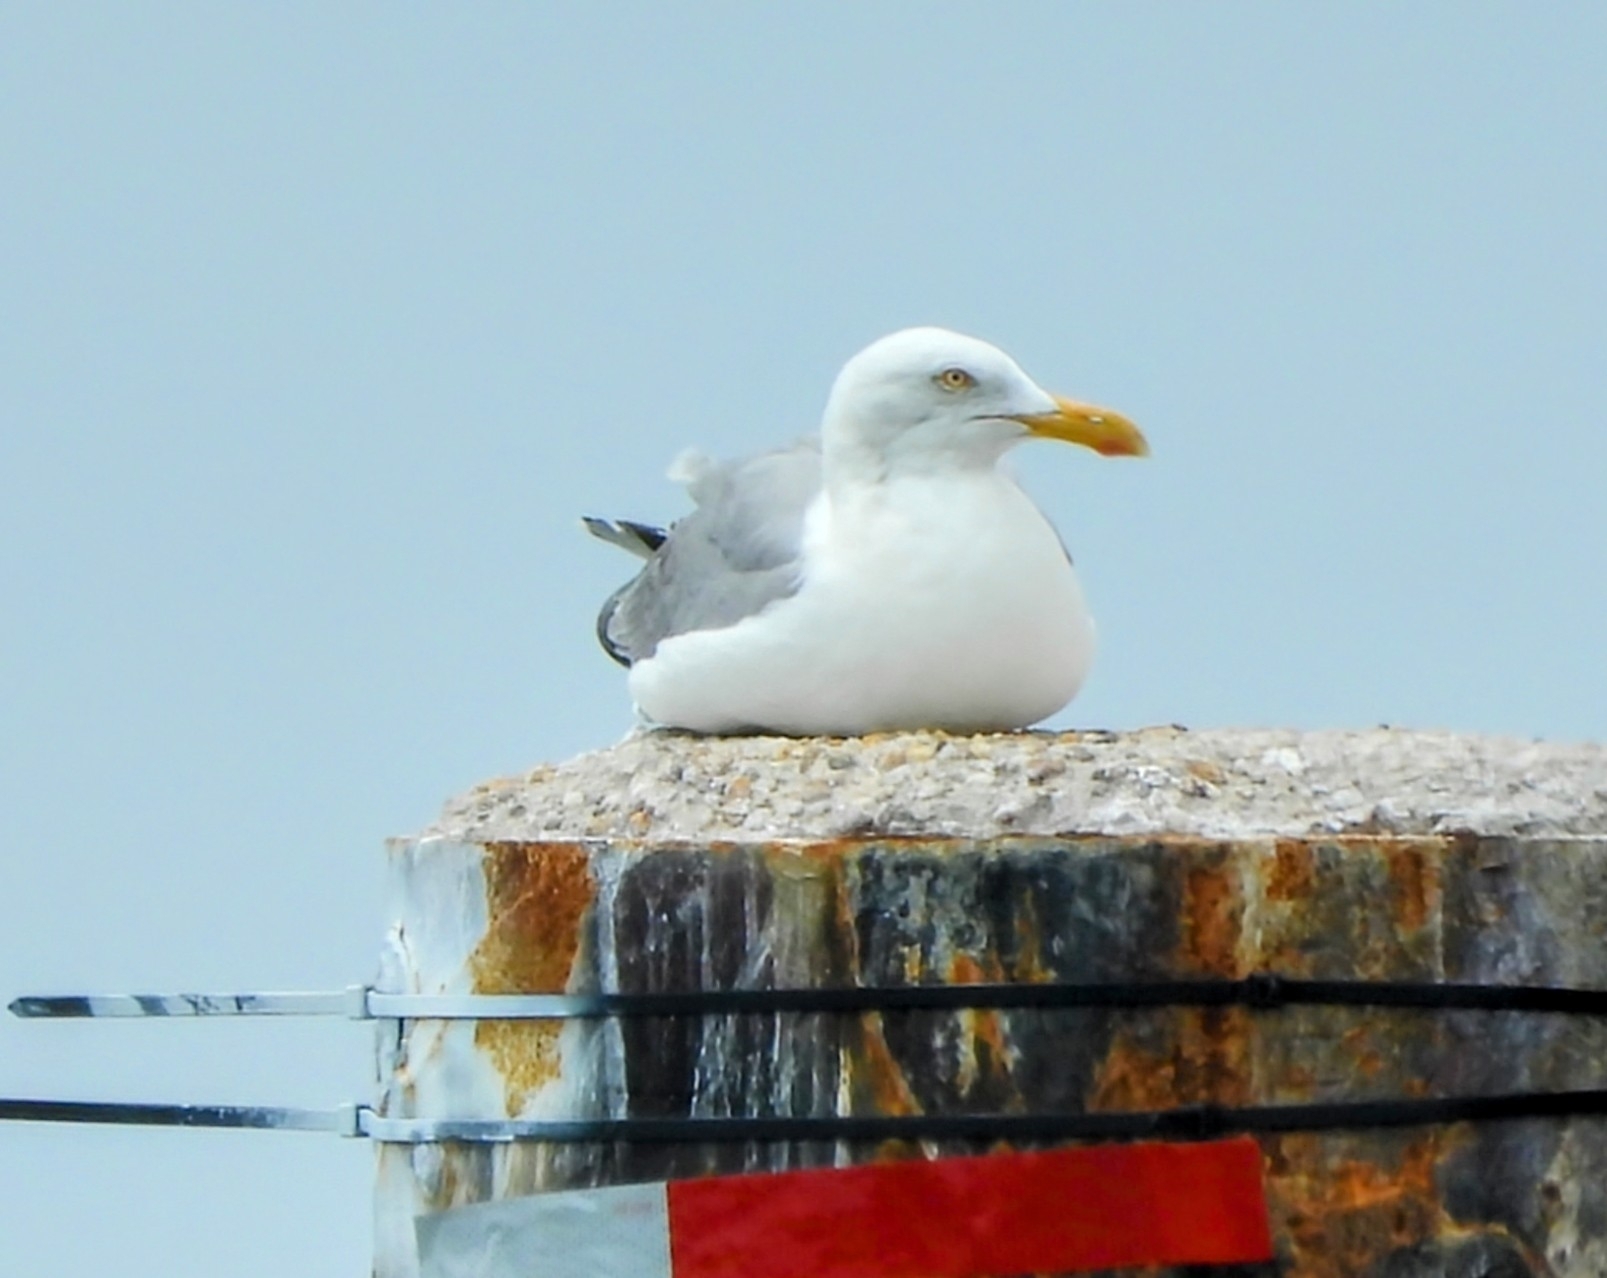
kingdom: Animalia
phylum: Chordata
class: Aves
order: Charadriiformes
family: Laridae
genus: Larus
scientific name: Larus argentatus
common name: Herring gull
